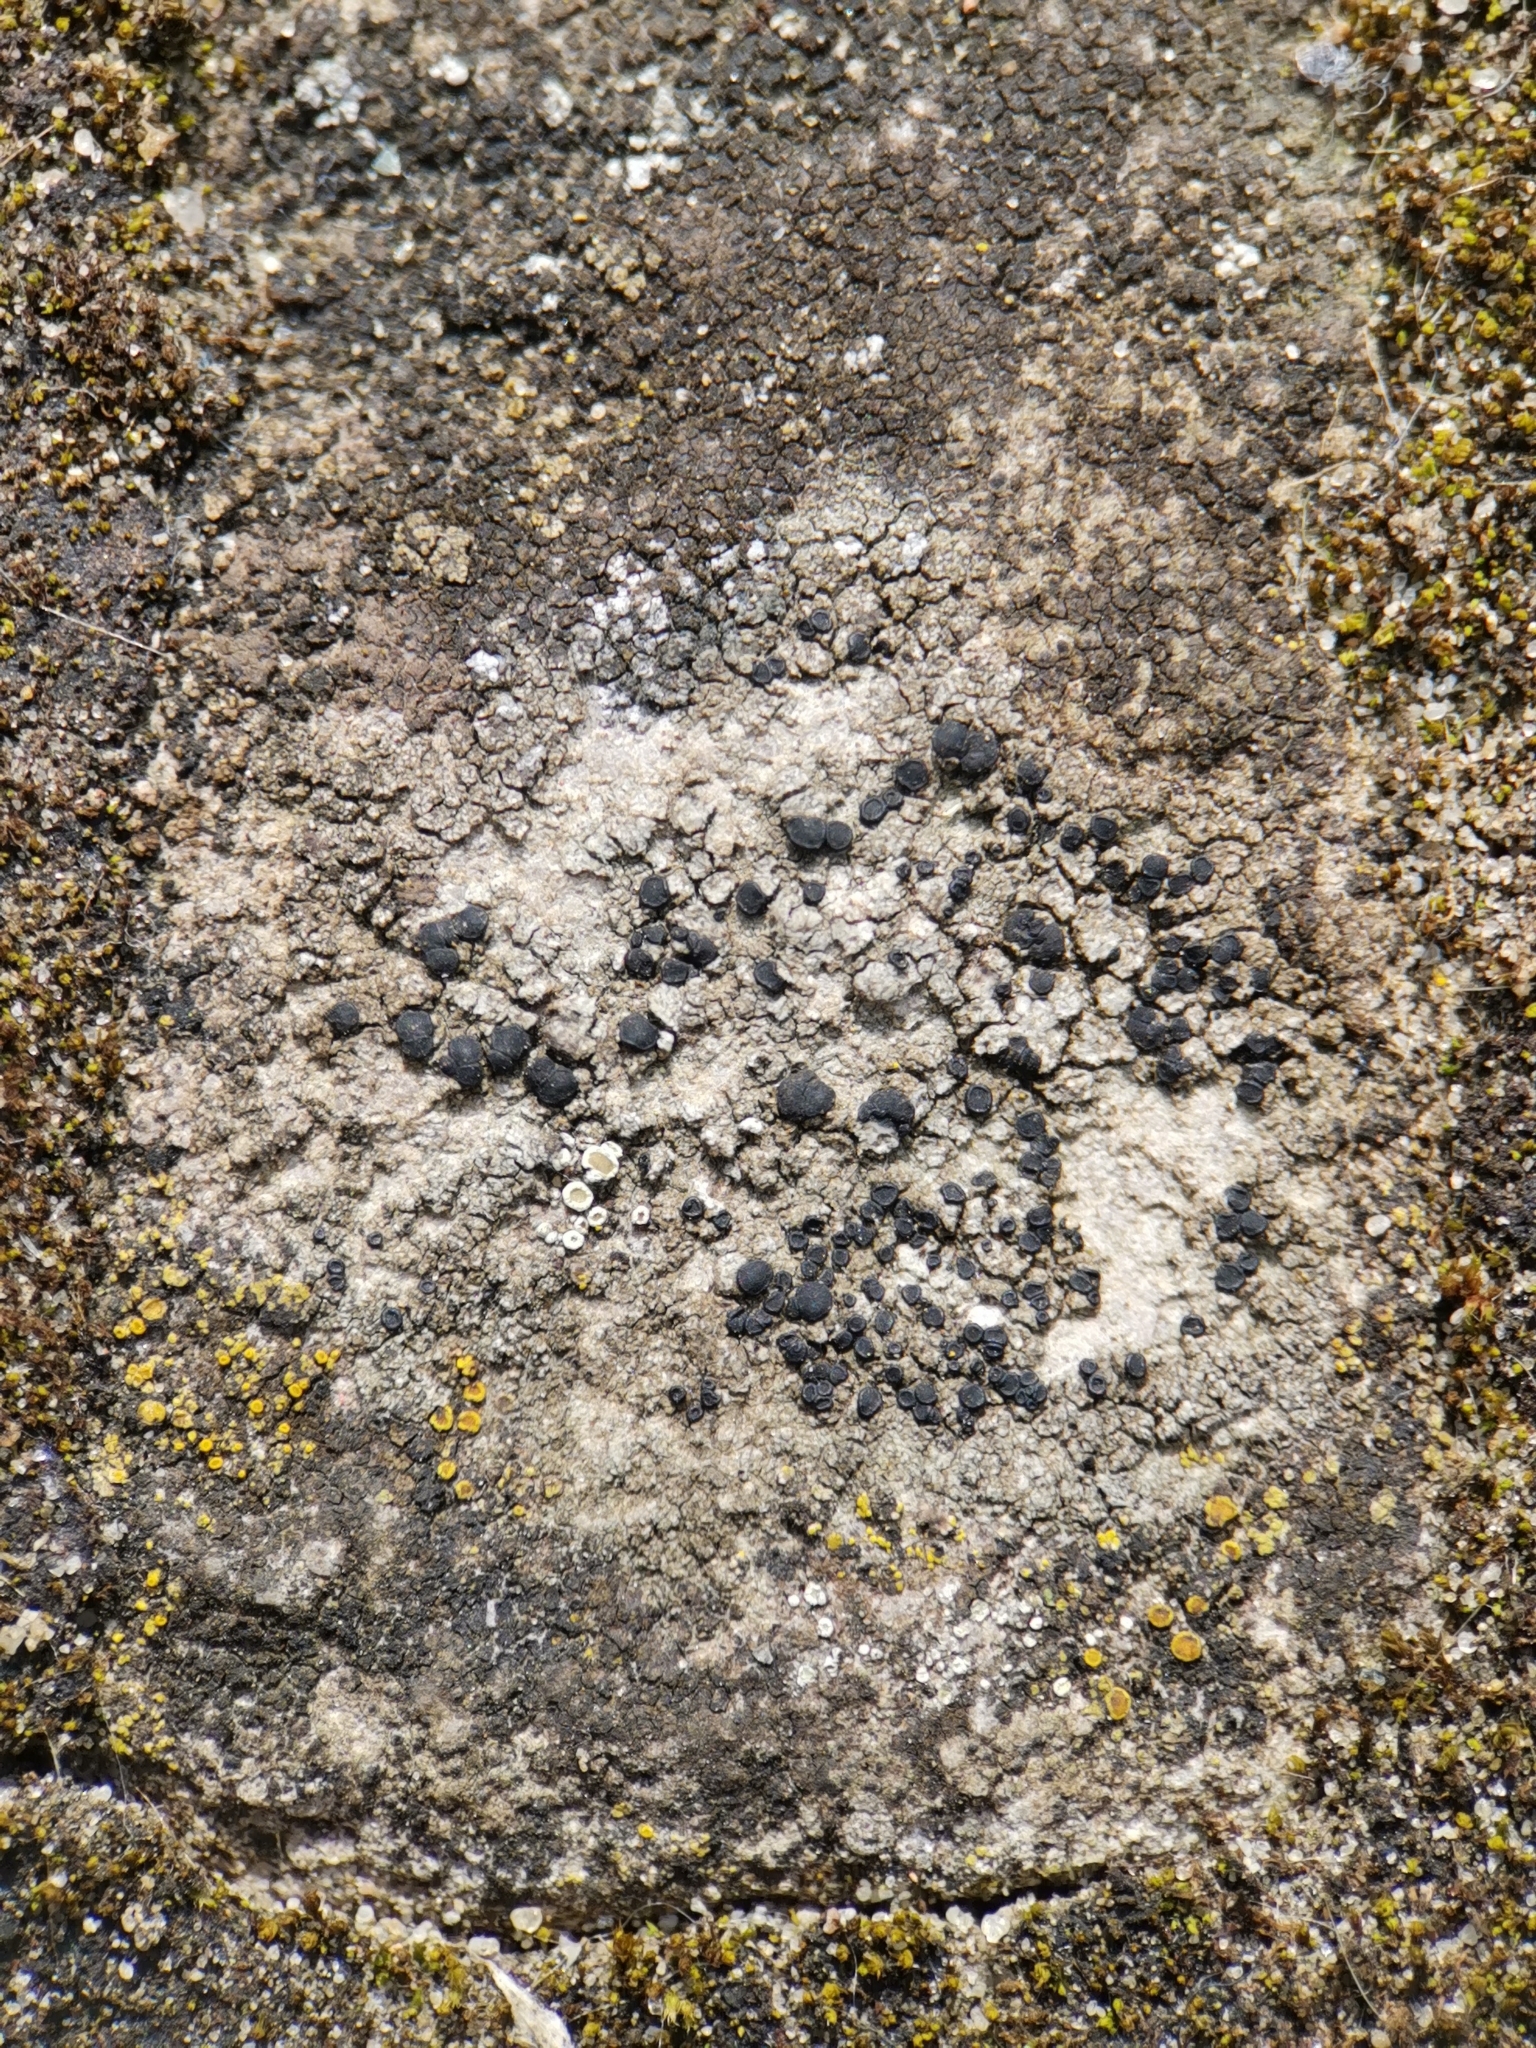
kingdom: Fungi
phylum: Ascomycota
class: Lecanoromycetes
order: Lecanorales
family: Lecanoraceae
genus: Lecidella
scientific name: Lecidella stigmatea
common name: Limestone disc lichen
